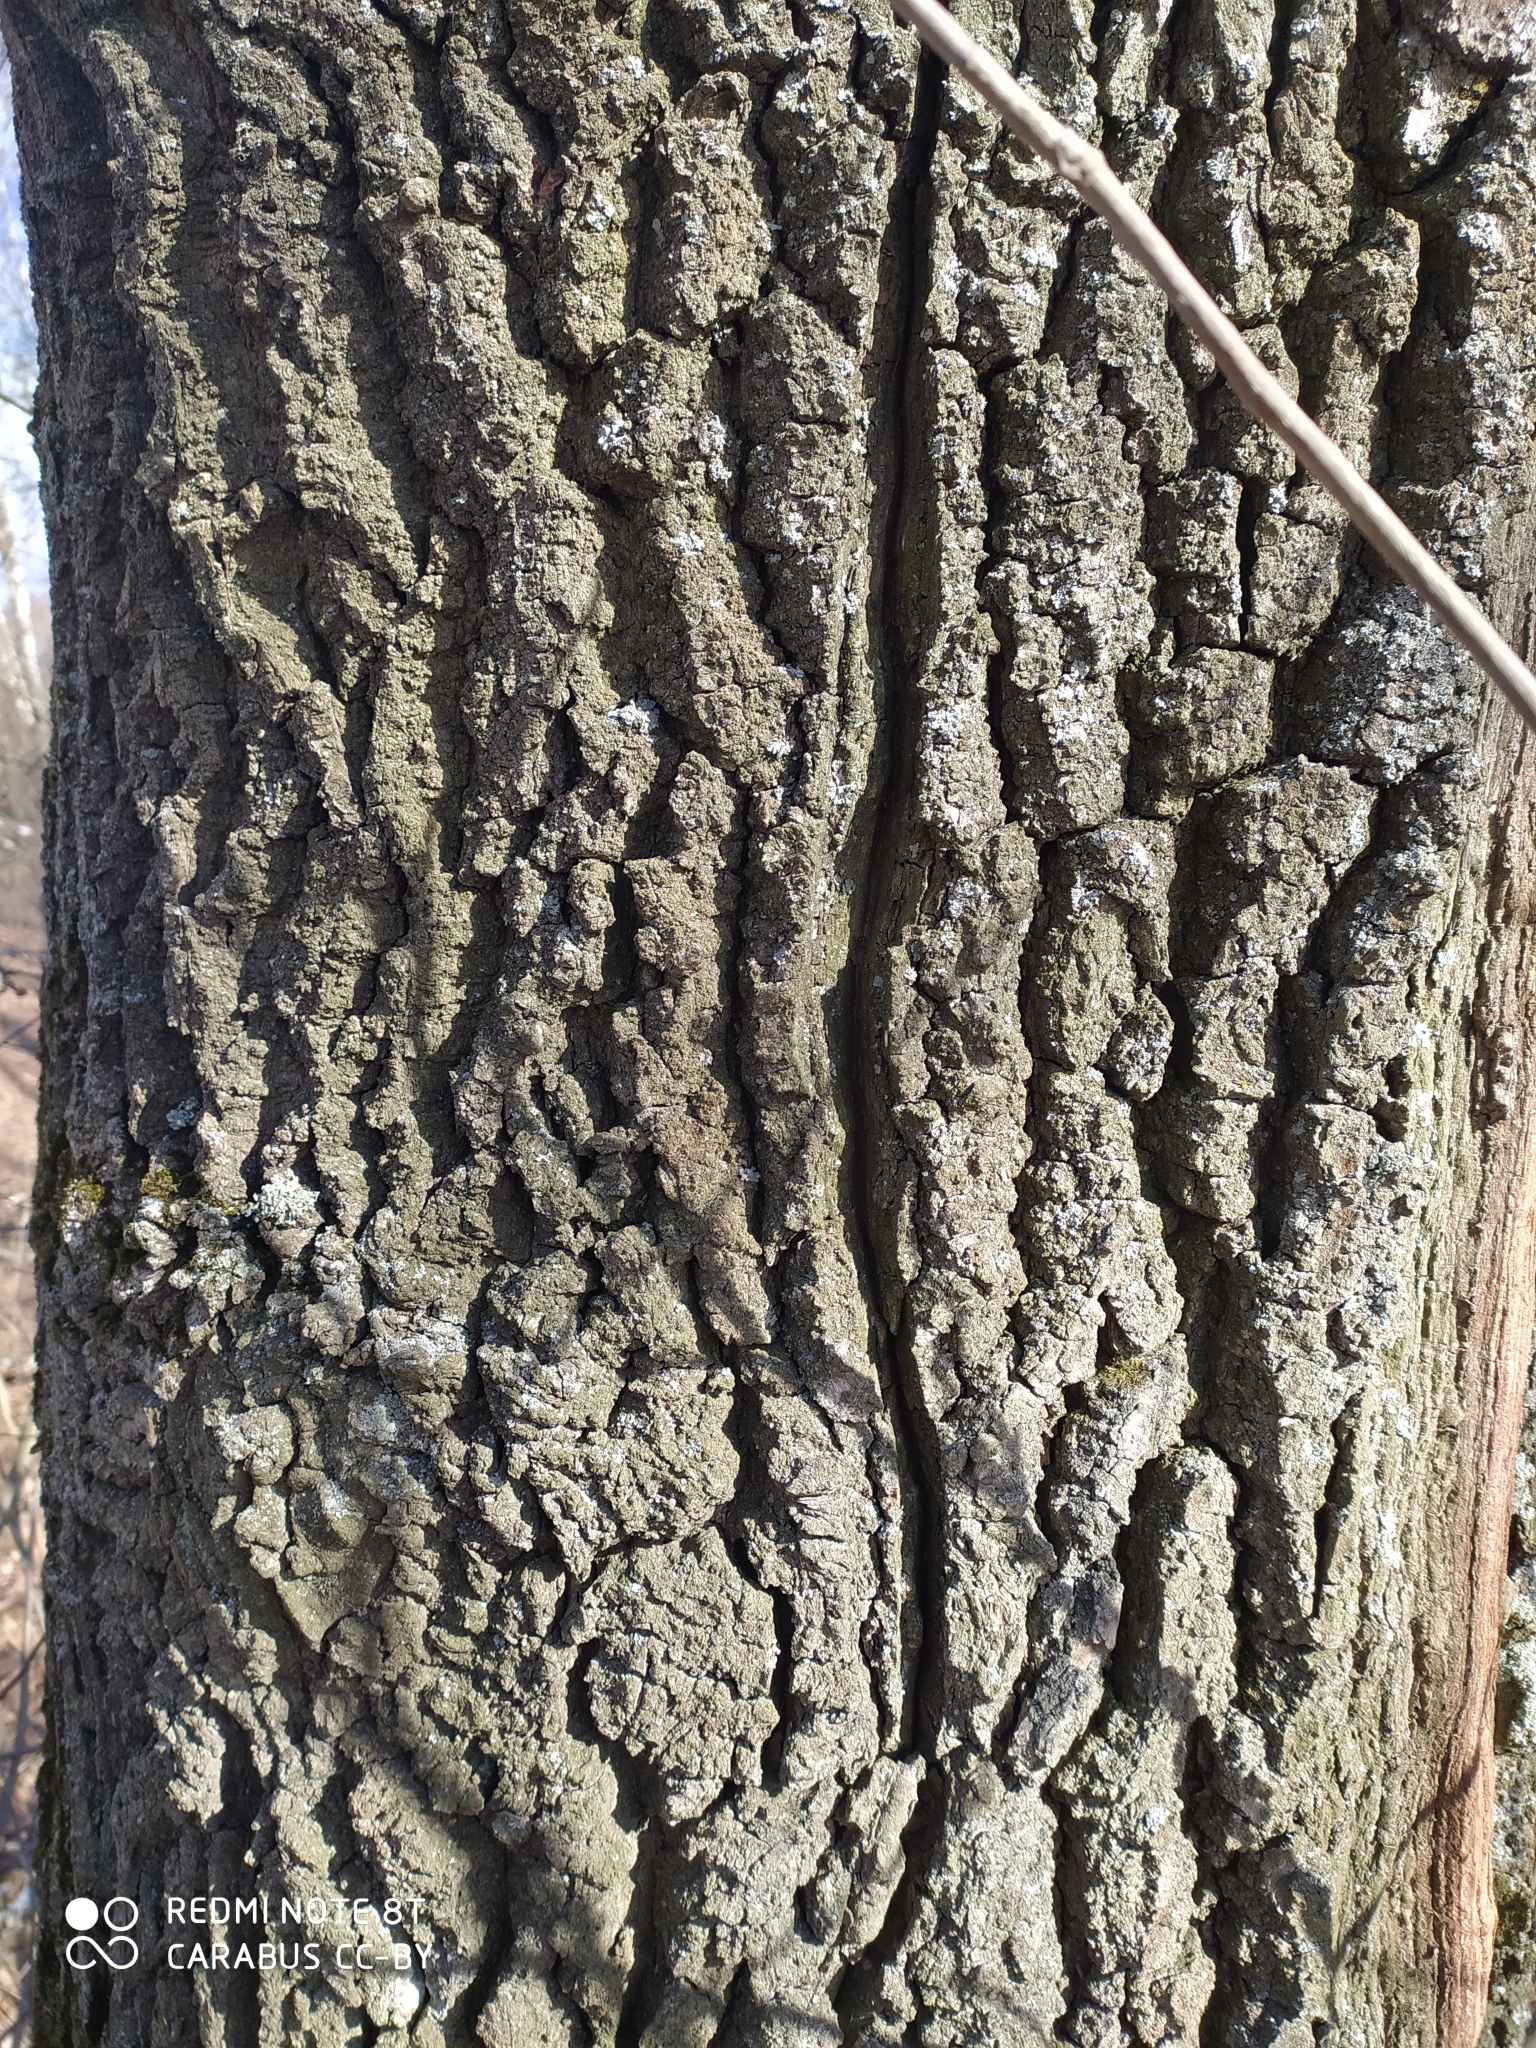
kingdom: Plantae
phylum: Tracheophyta
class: Magnoliopsida
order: Fagales
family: Fagaceae
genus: Quercus
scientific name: Quercus robur
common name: Pedunculate oak
